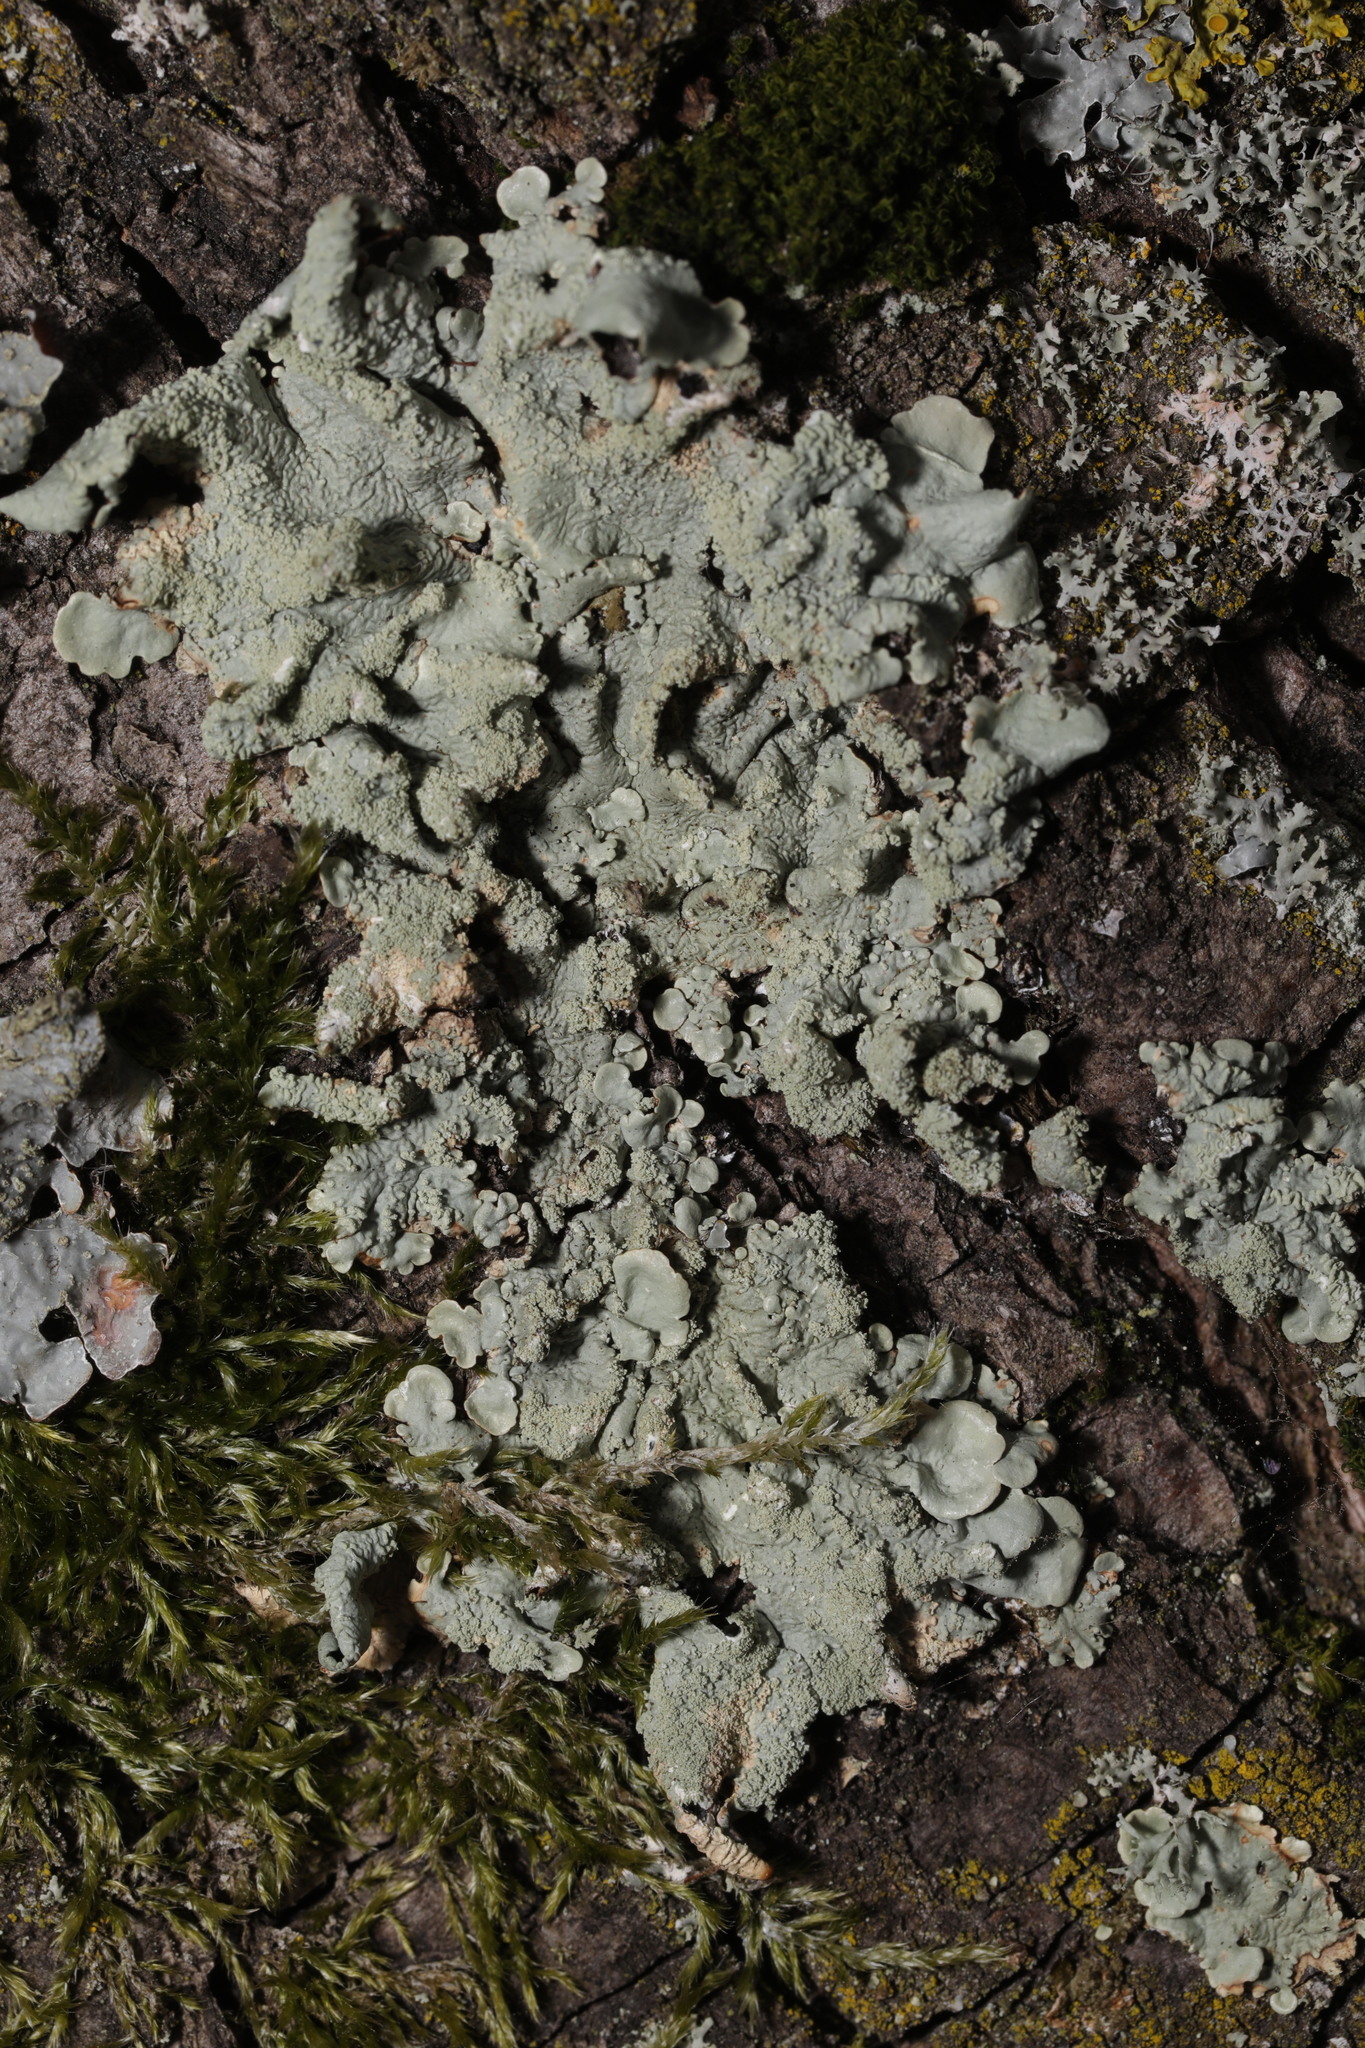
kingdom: Fungi
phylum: Ascomycota
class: Lecanoromycetes
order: Lecanorales
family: Parmeliaceae
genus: Flavoparmelia
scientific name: Flavoparmelia caperata
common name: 40-mile per hour lichen
